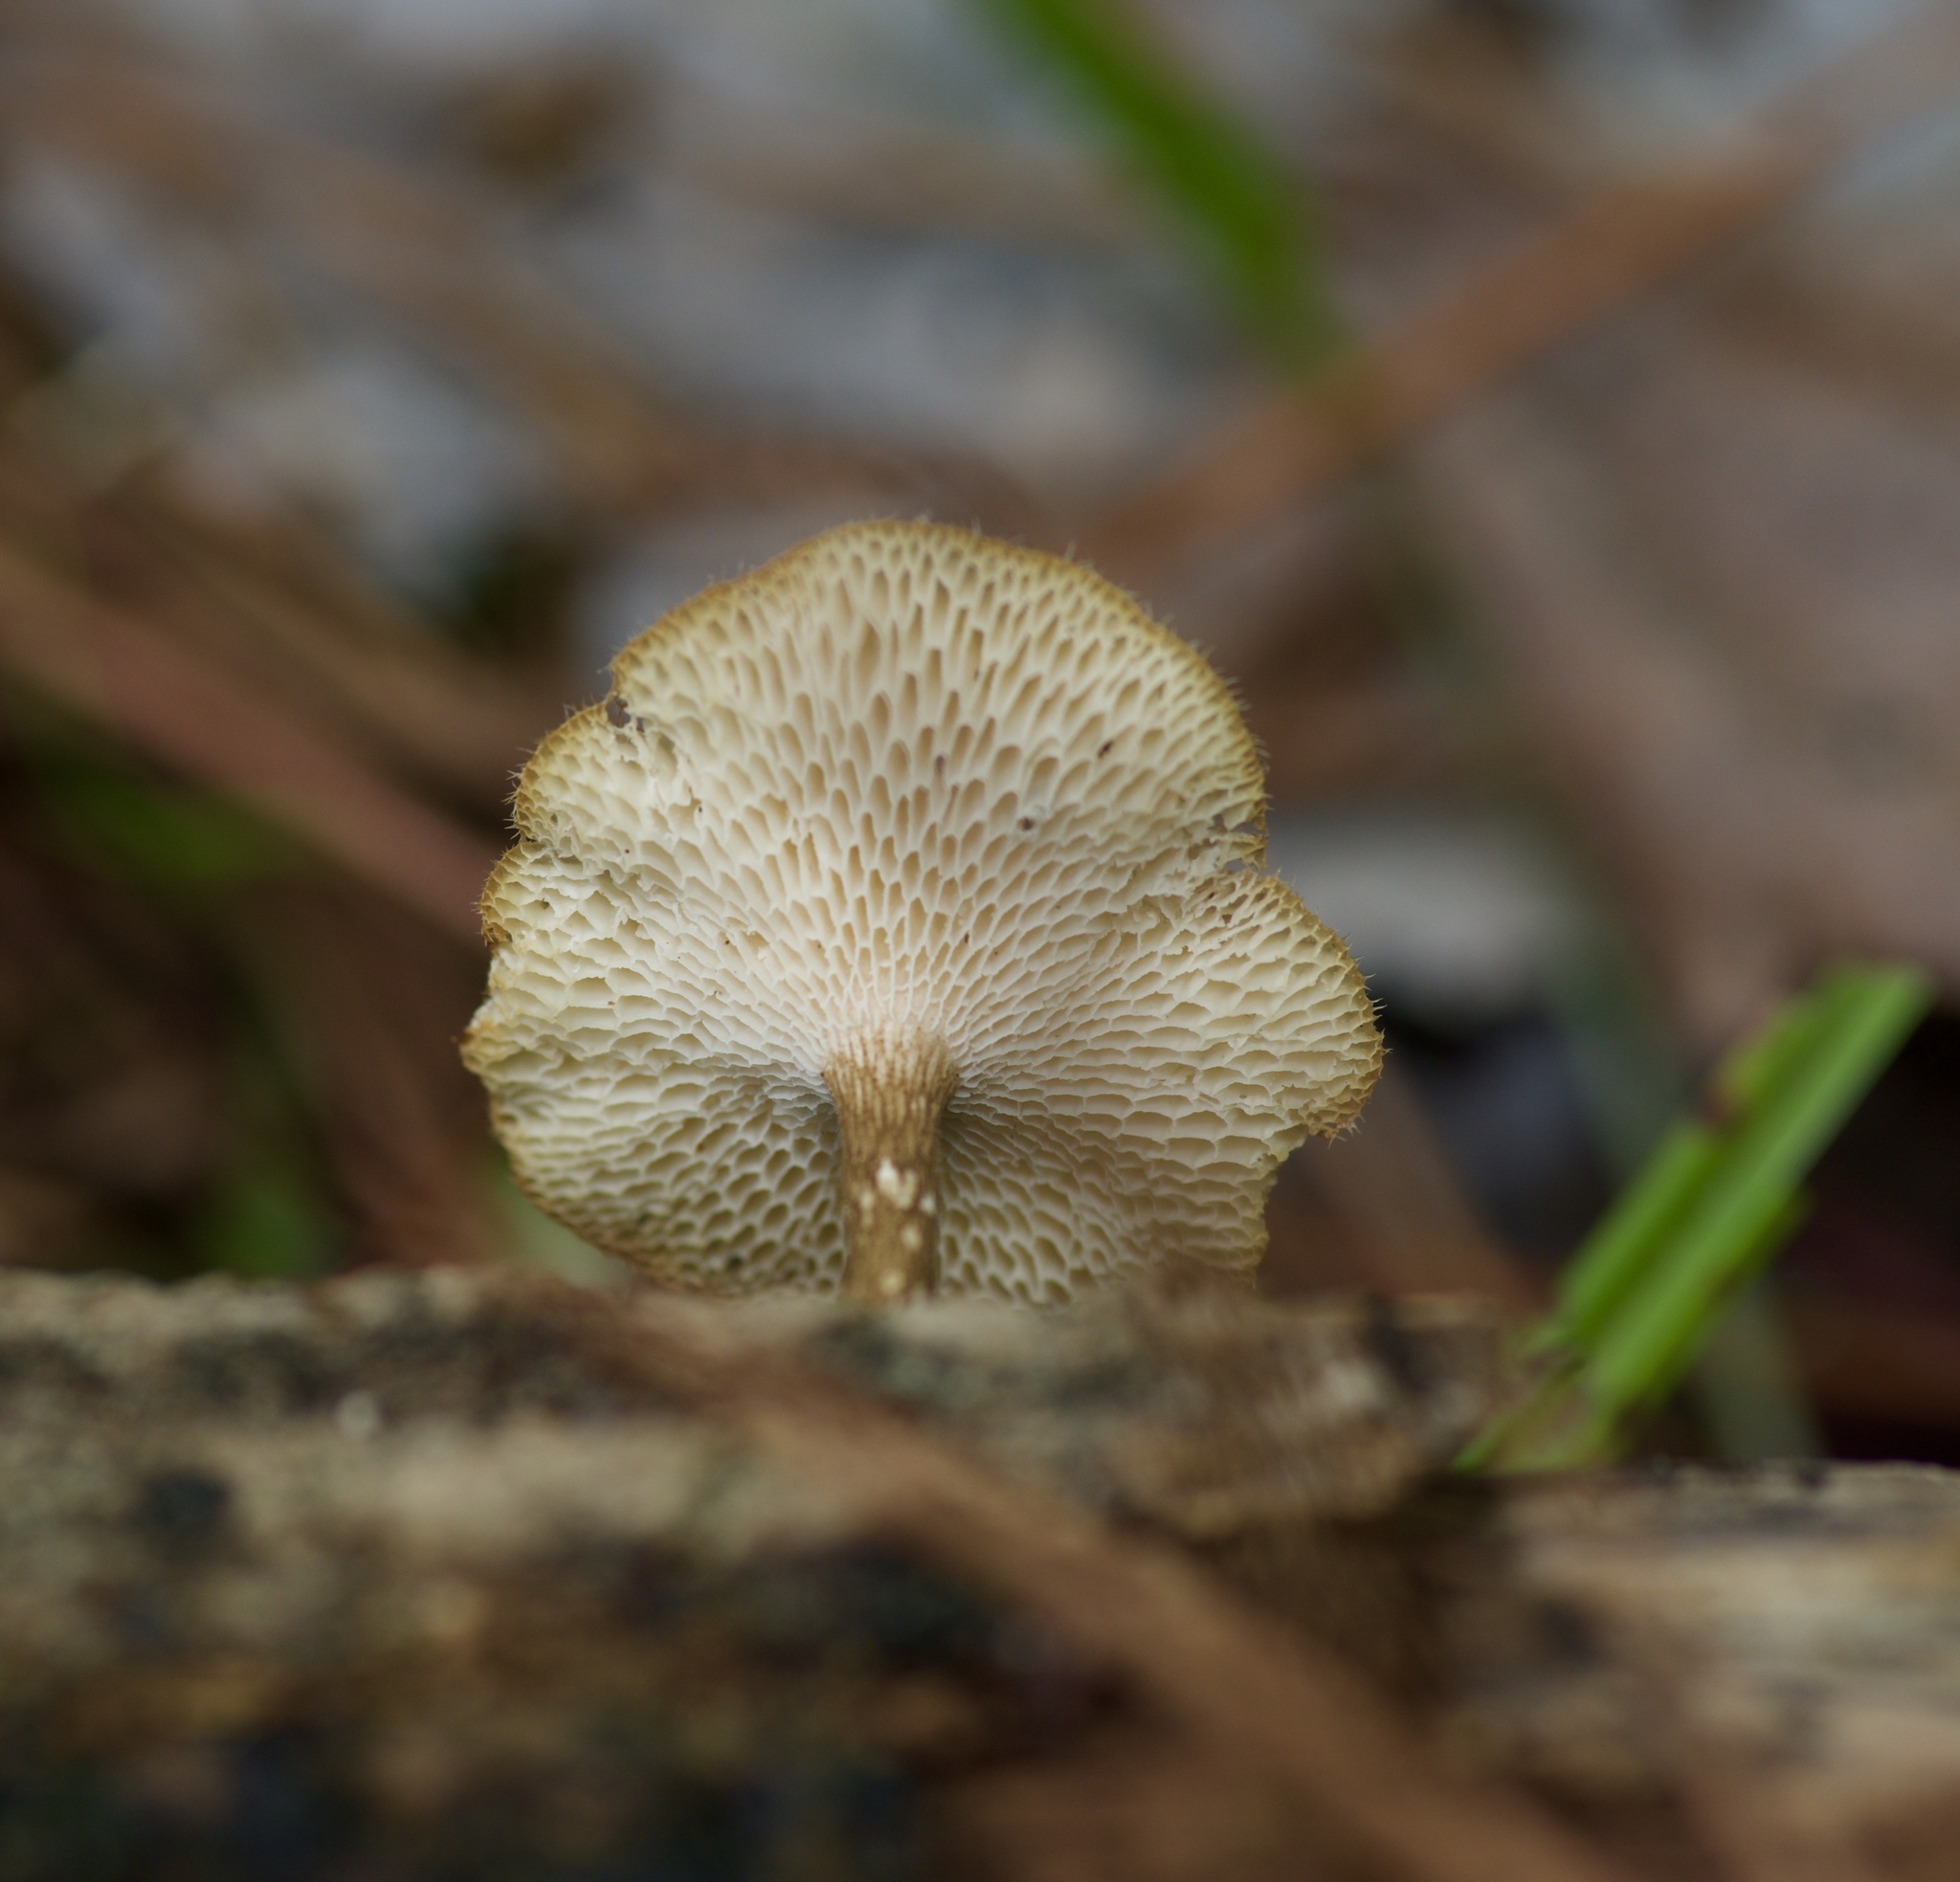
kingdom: Fungi
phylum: Basidiomycota
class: Agaricomycetes
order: Polyporales
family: Polyporaceae
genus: Lentinus
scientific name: Lentinus arcularius
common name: Spring polypore
